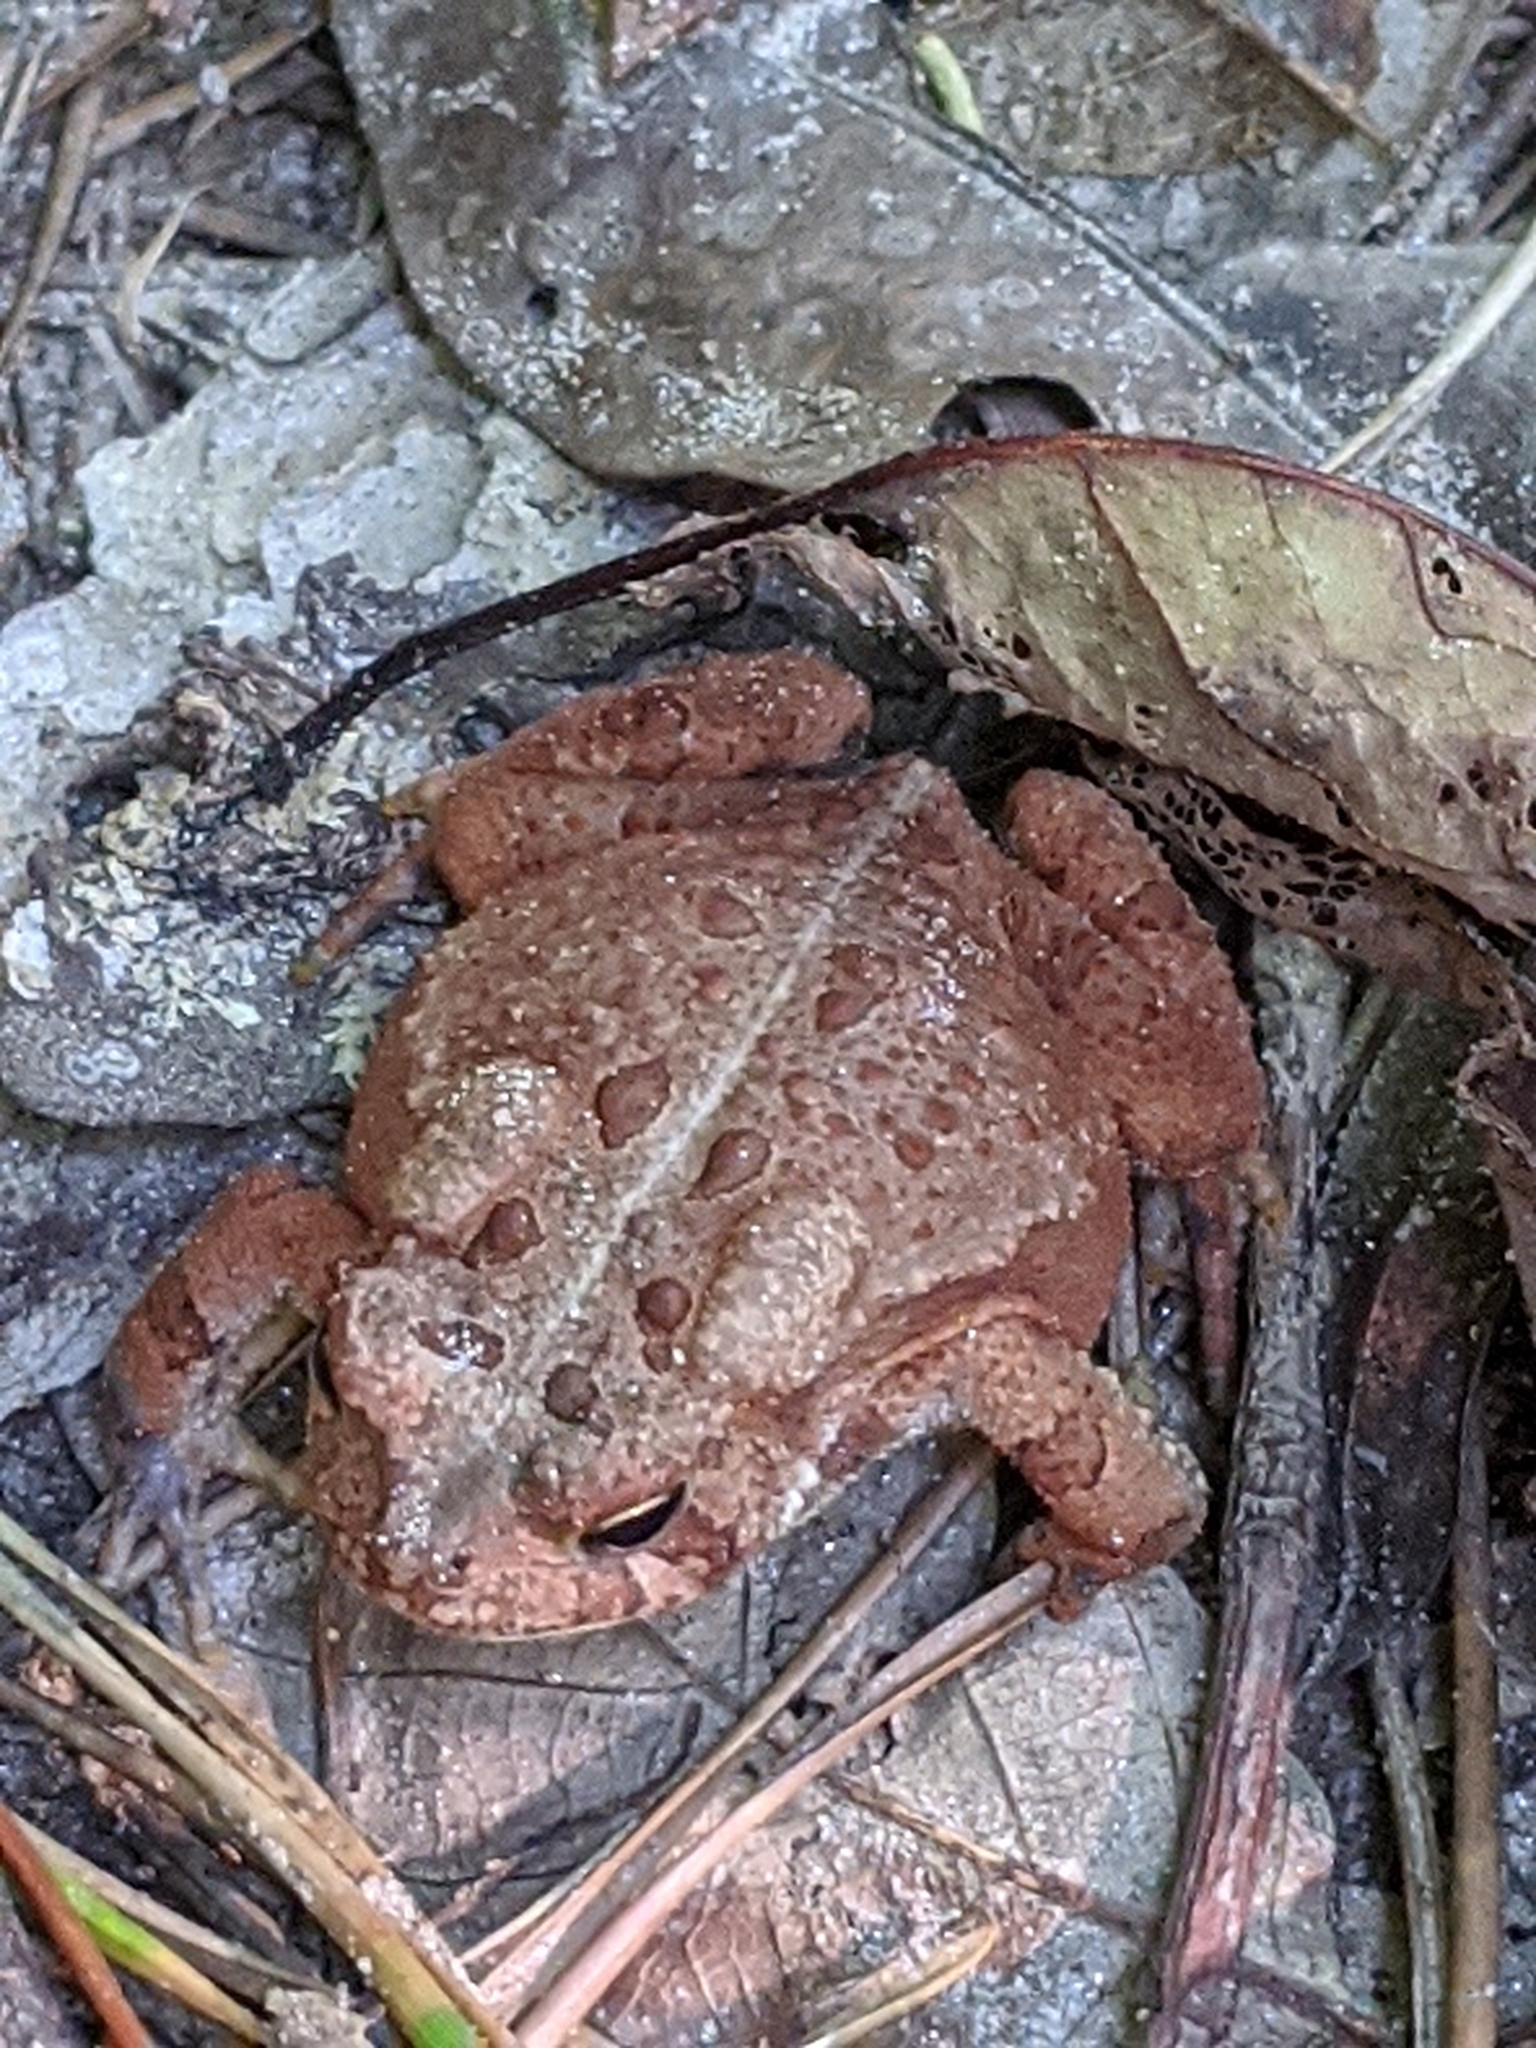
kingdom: Animalia
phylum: Chordata
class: Amphibia
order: Anura
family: Bufonidae
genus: Anaxyrus
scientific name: Anaxyrus americanus
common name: American toad
